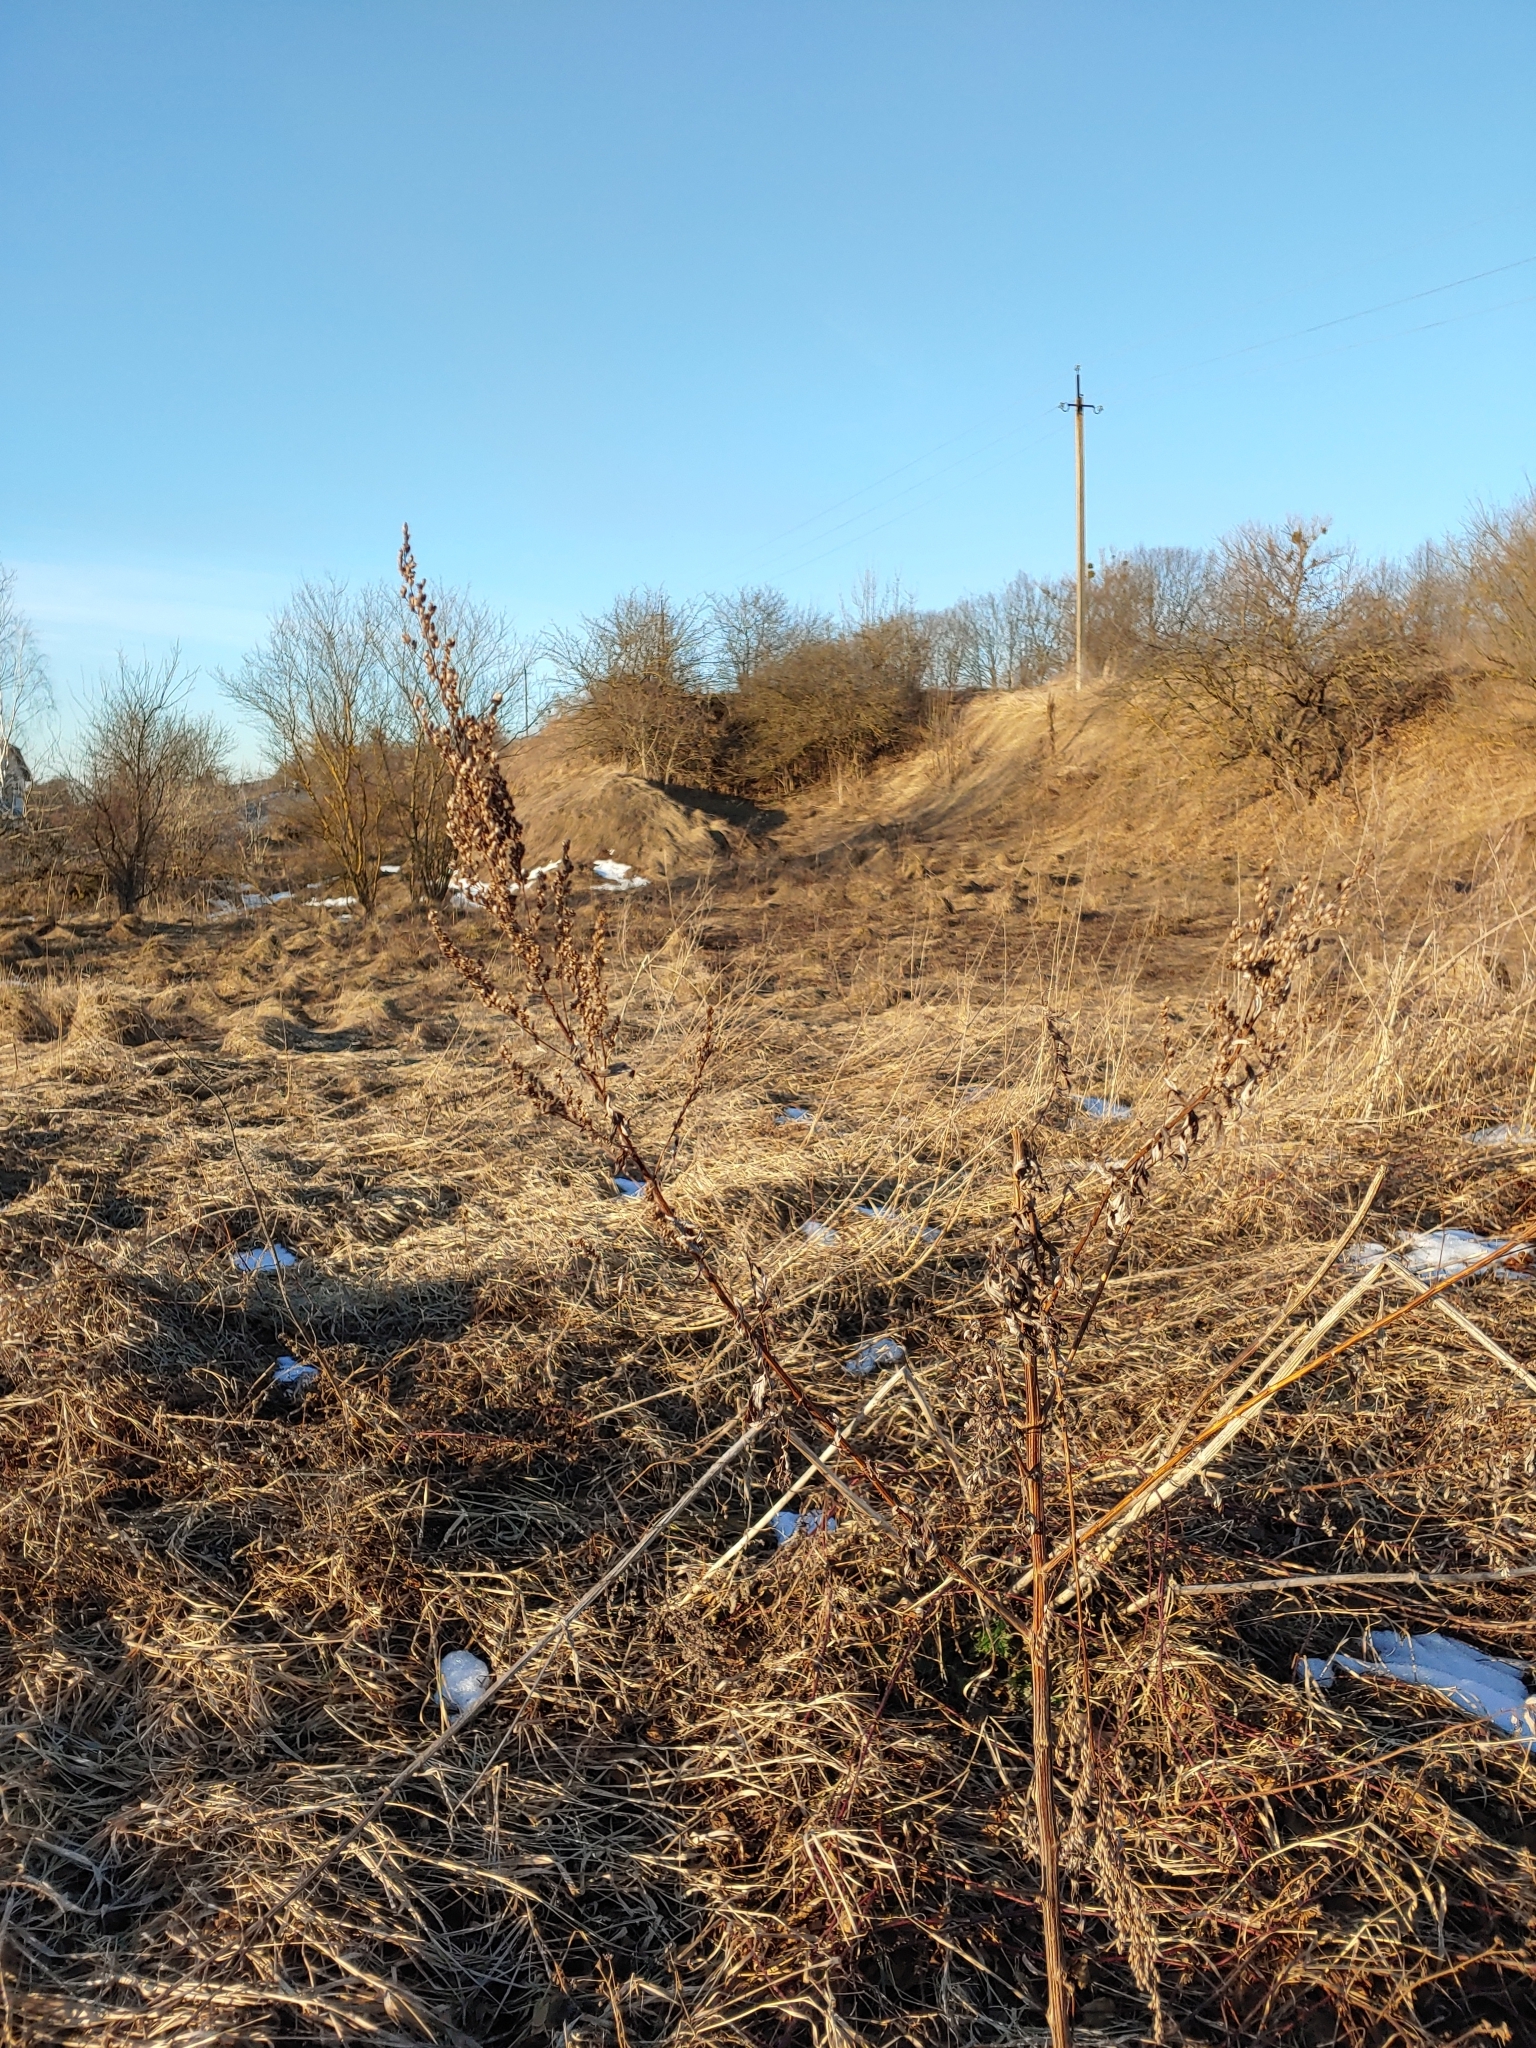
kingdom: Plantae
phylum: Tracheophyta
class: Magnoliopsida
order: Asterales
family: Asteraceae
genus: Artemisia
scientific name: Artemisia vulgaris
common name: Mugwort
